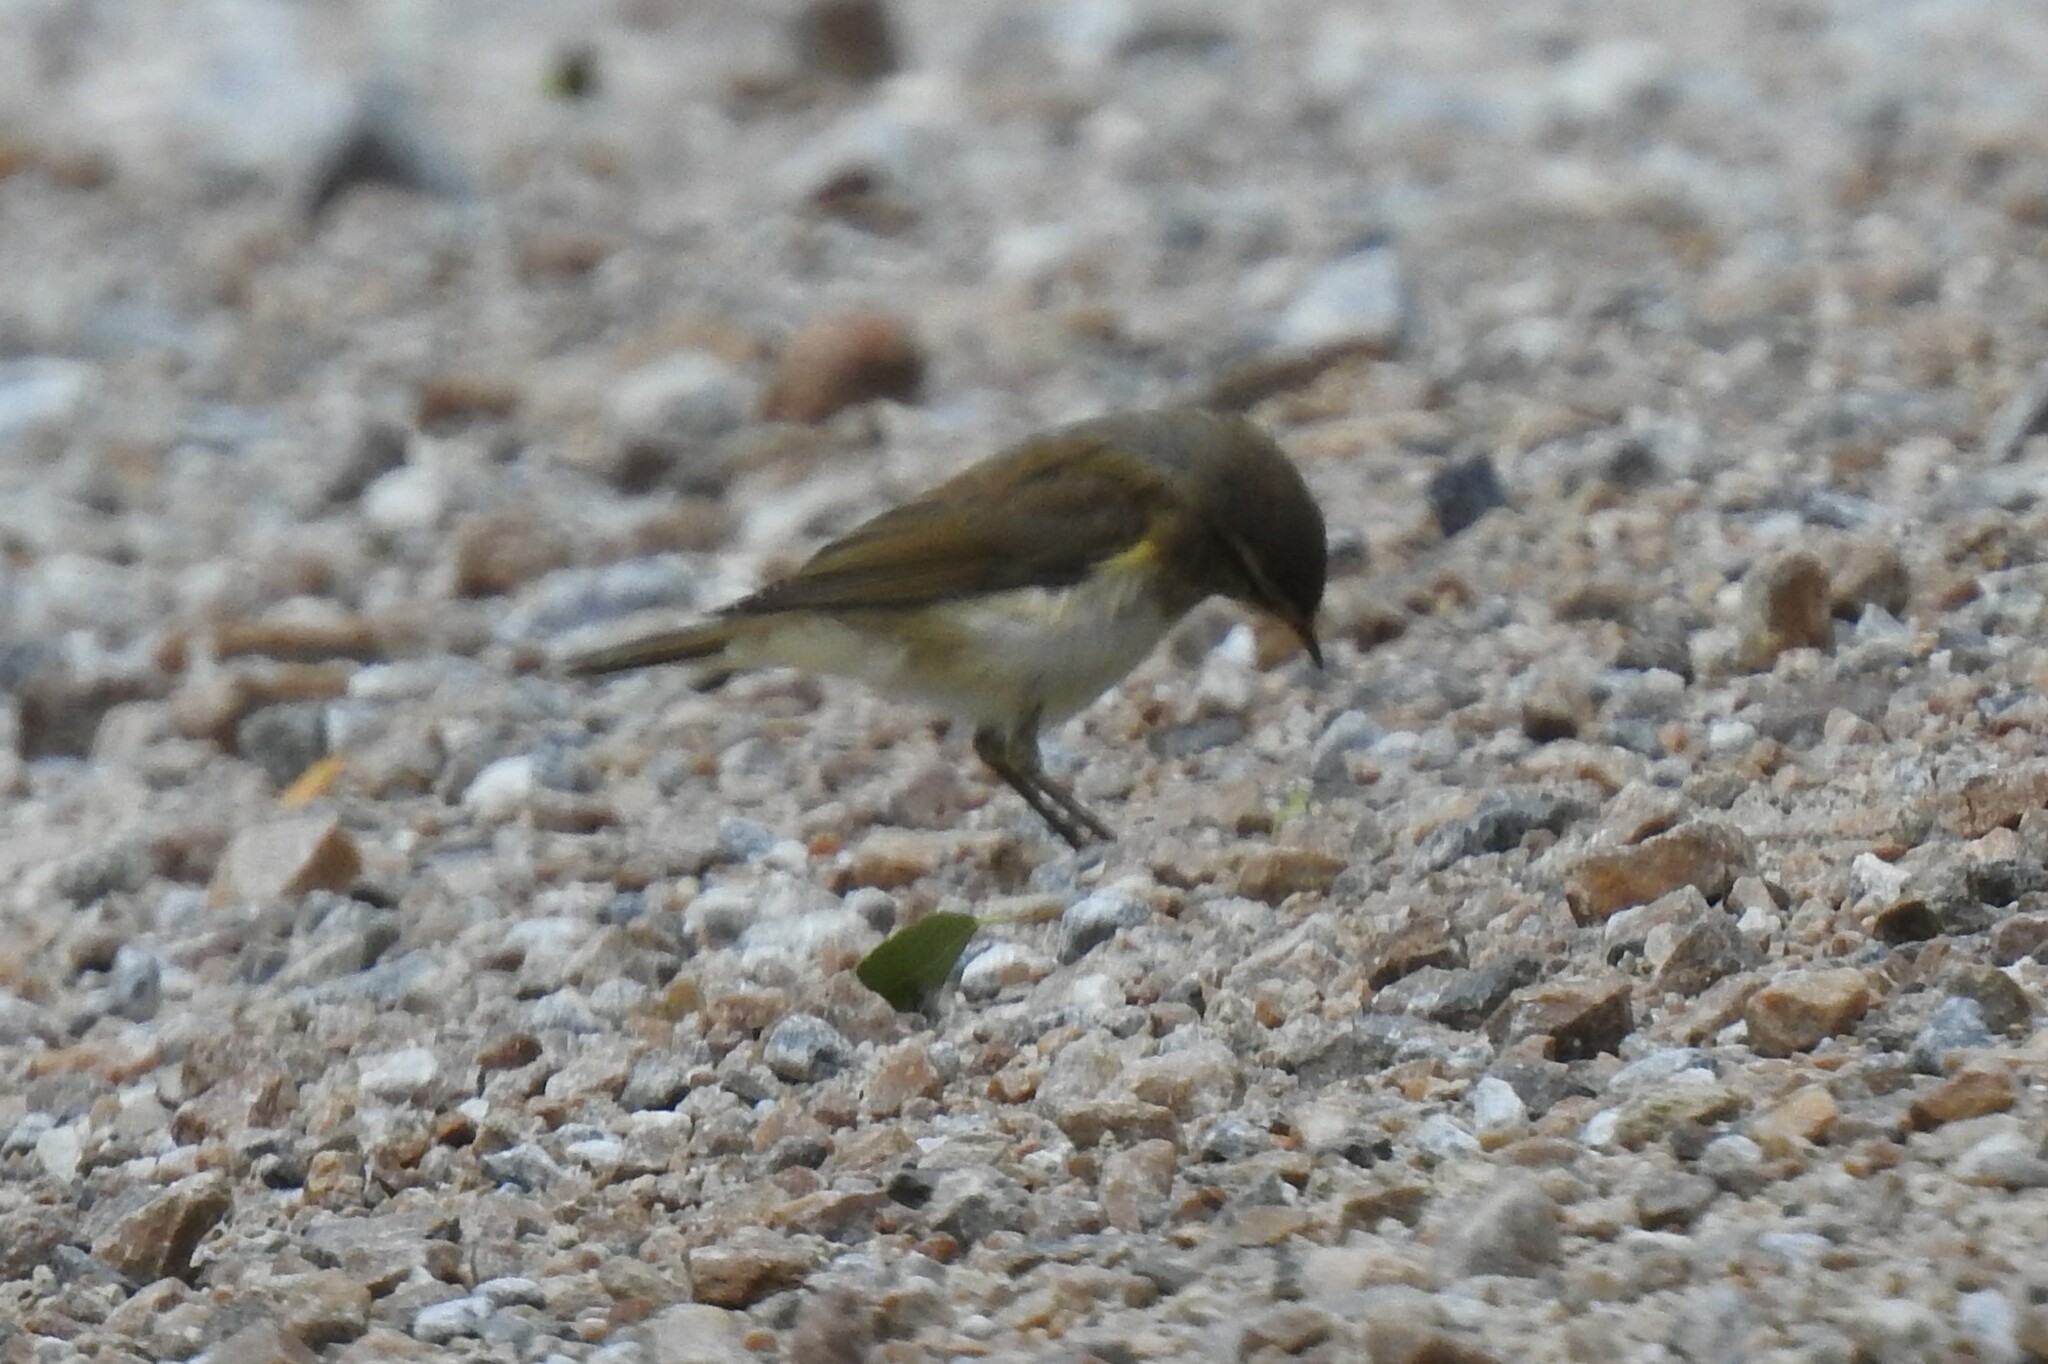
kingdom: Animalia
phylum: Chordata
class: Aves
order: Passeriformes
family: Phylloscopidae
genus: Phylloscopus
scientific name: Phylloscopus trochilus
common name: Willow warbler
